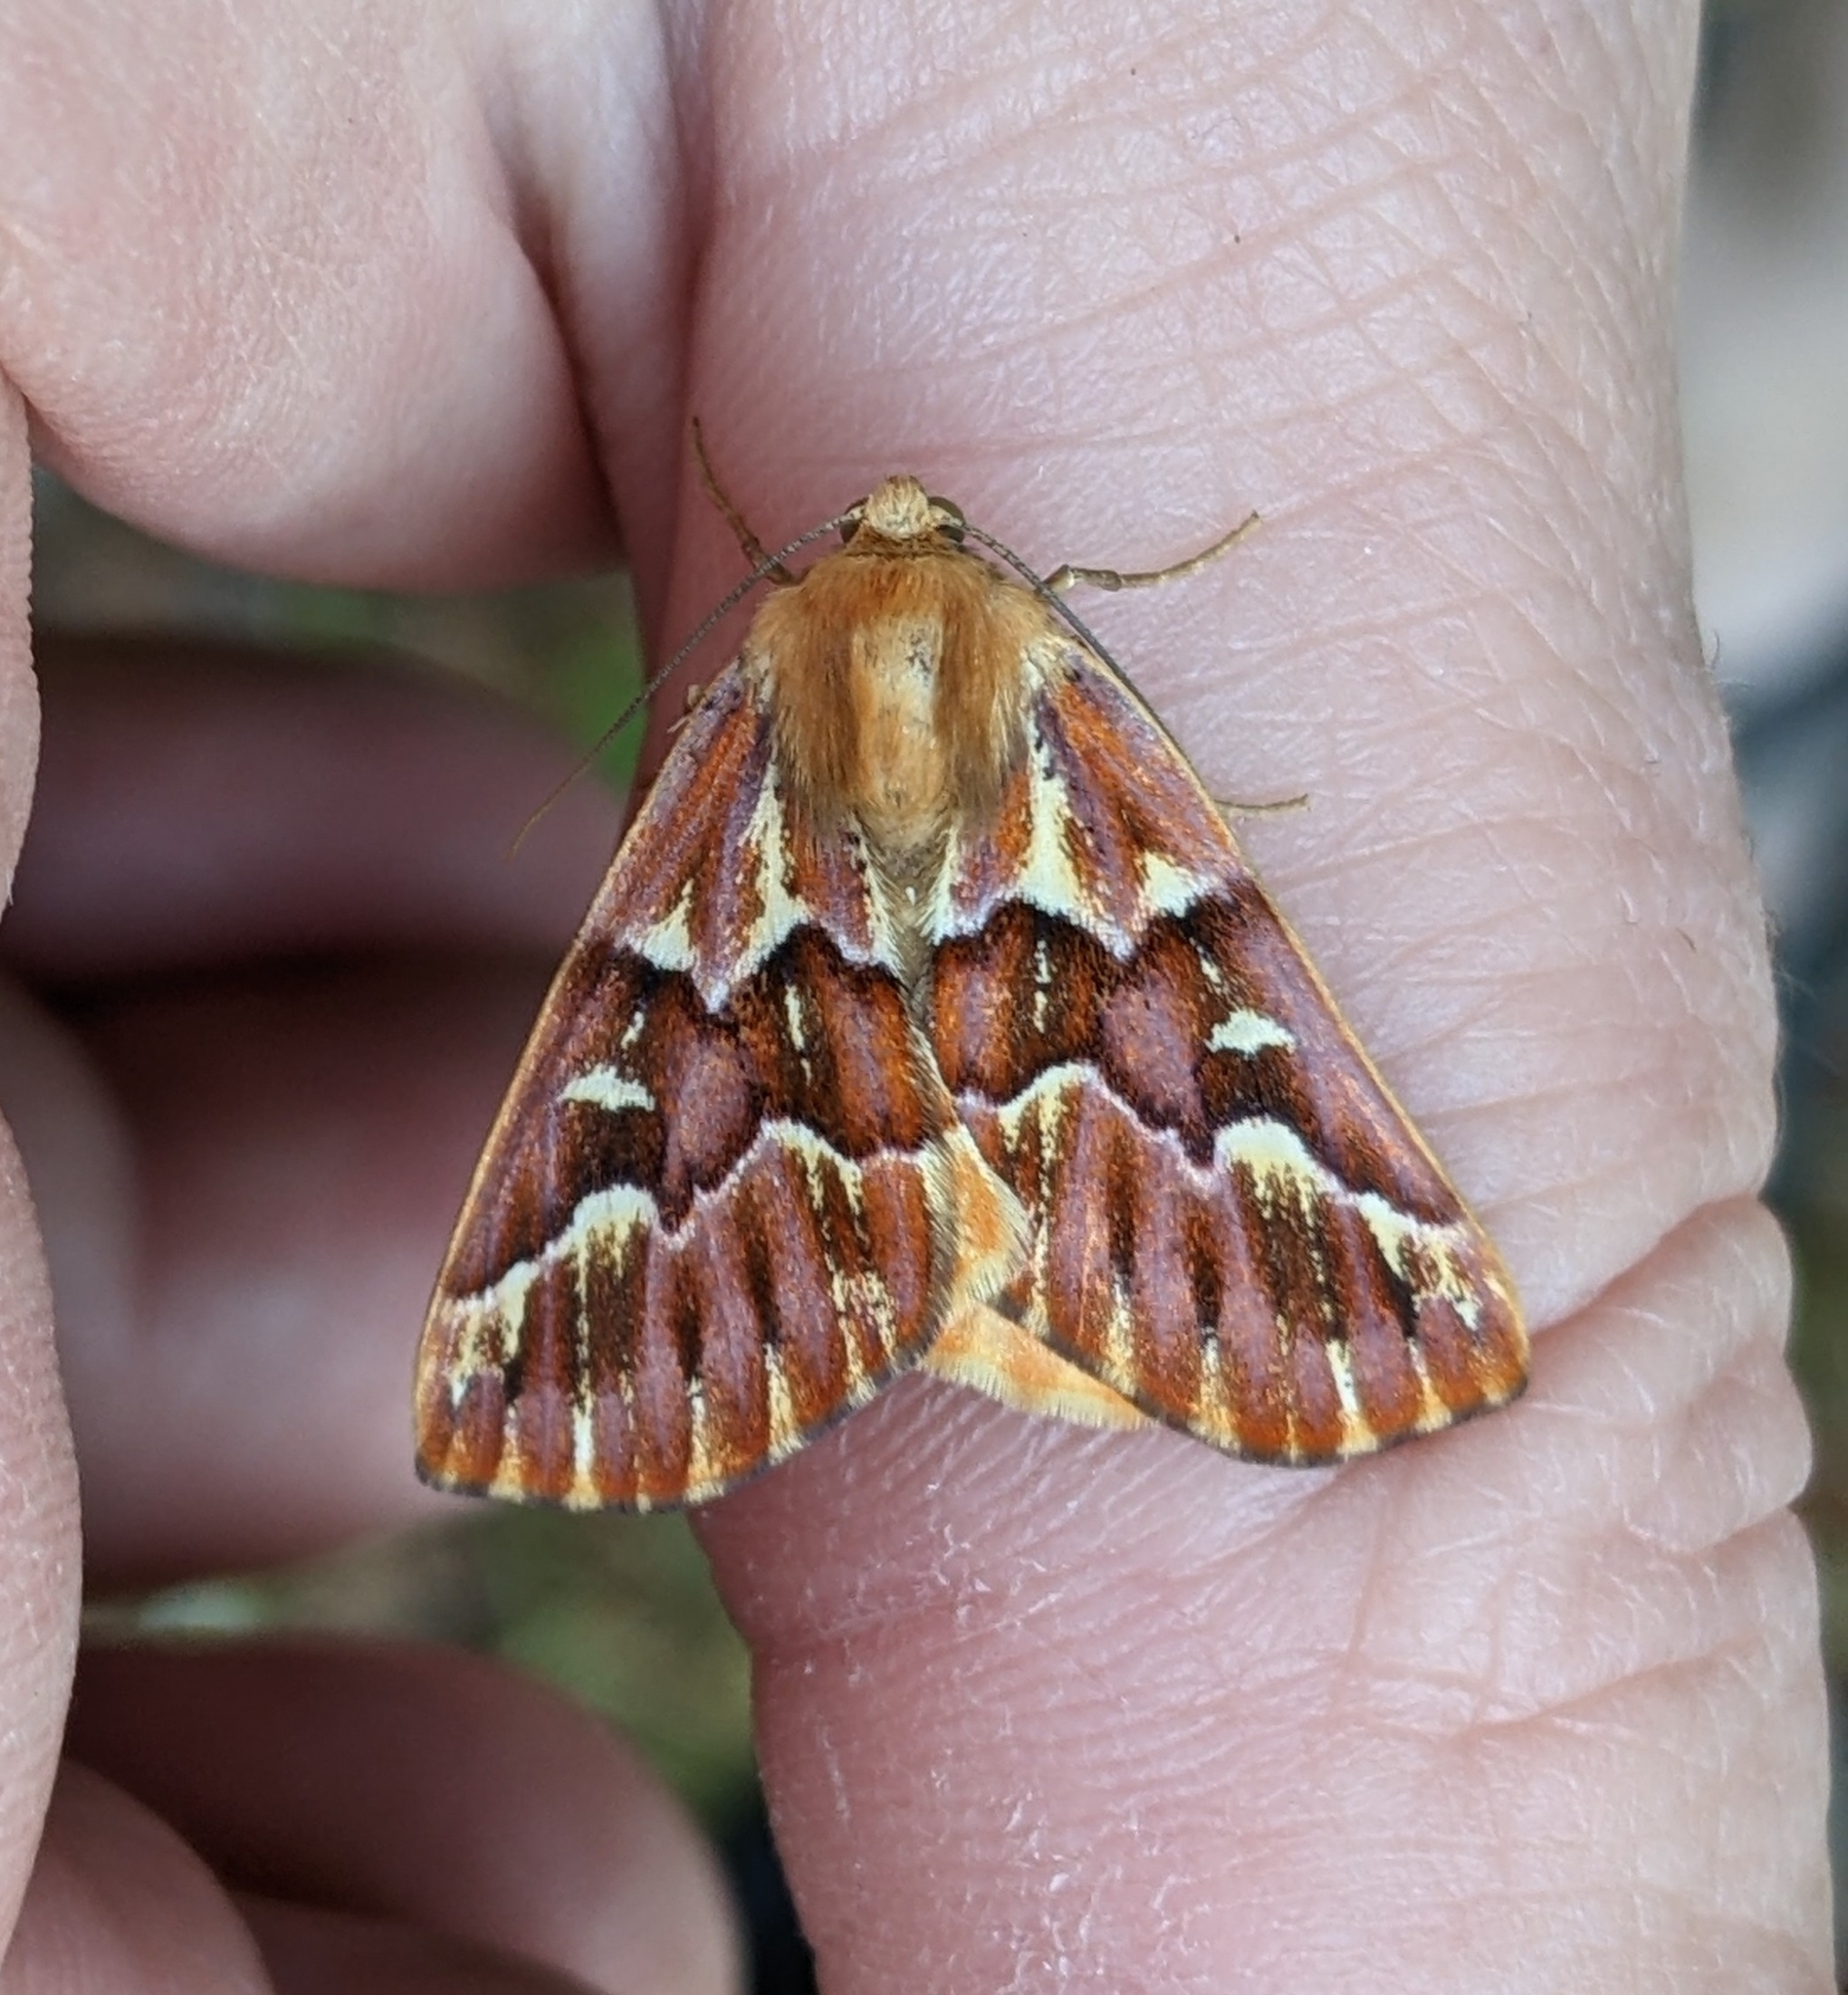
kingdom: Animalia
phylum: Arthropoda
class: Insecta
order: Lepidoptera
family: Geometridae
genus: Caripeta
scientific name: Caripeta aequaliaria
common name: Red girdle moth
